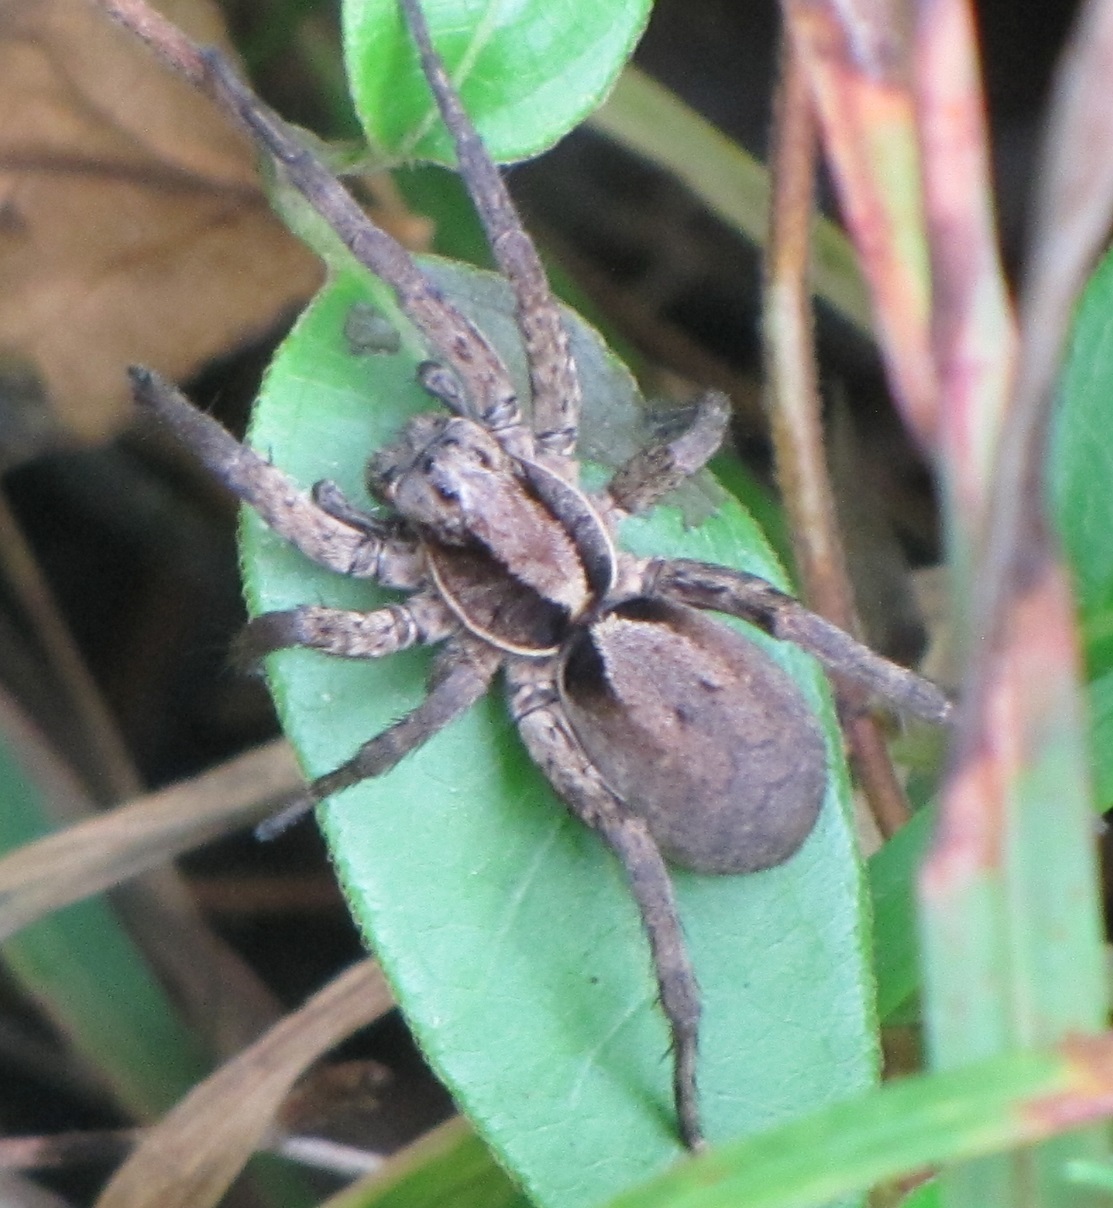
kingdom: Animalia
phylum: Arthropoda
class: Arachnida
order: Araneae
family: Lycosidae
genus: Hogna
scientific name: Hogna frondicola
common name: Forest wolf spider
